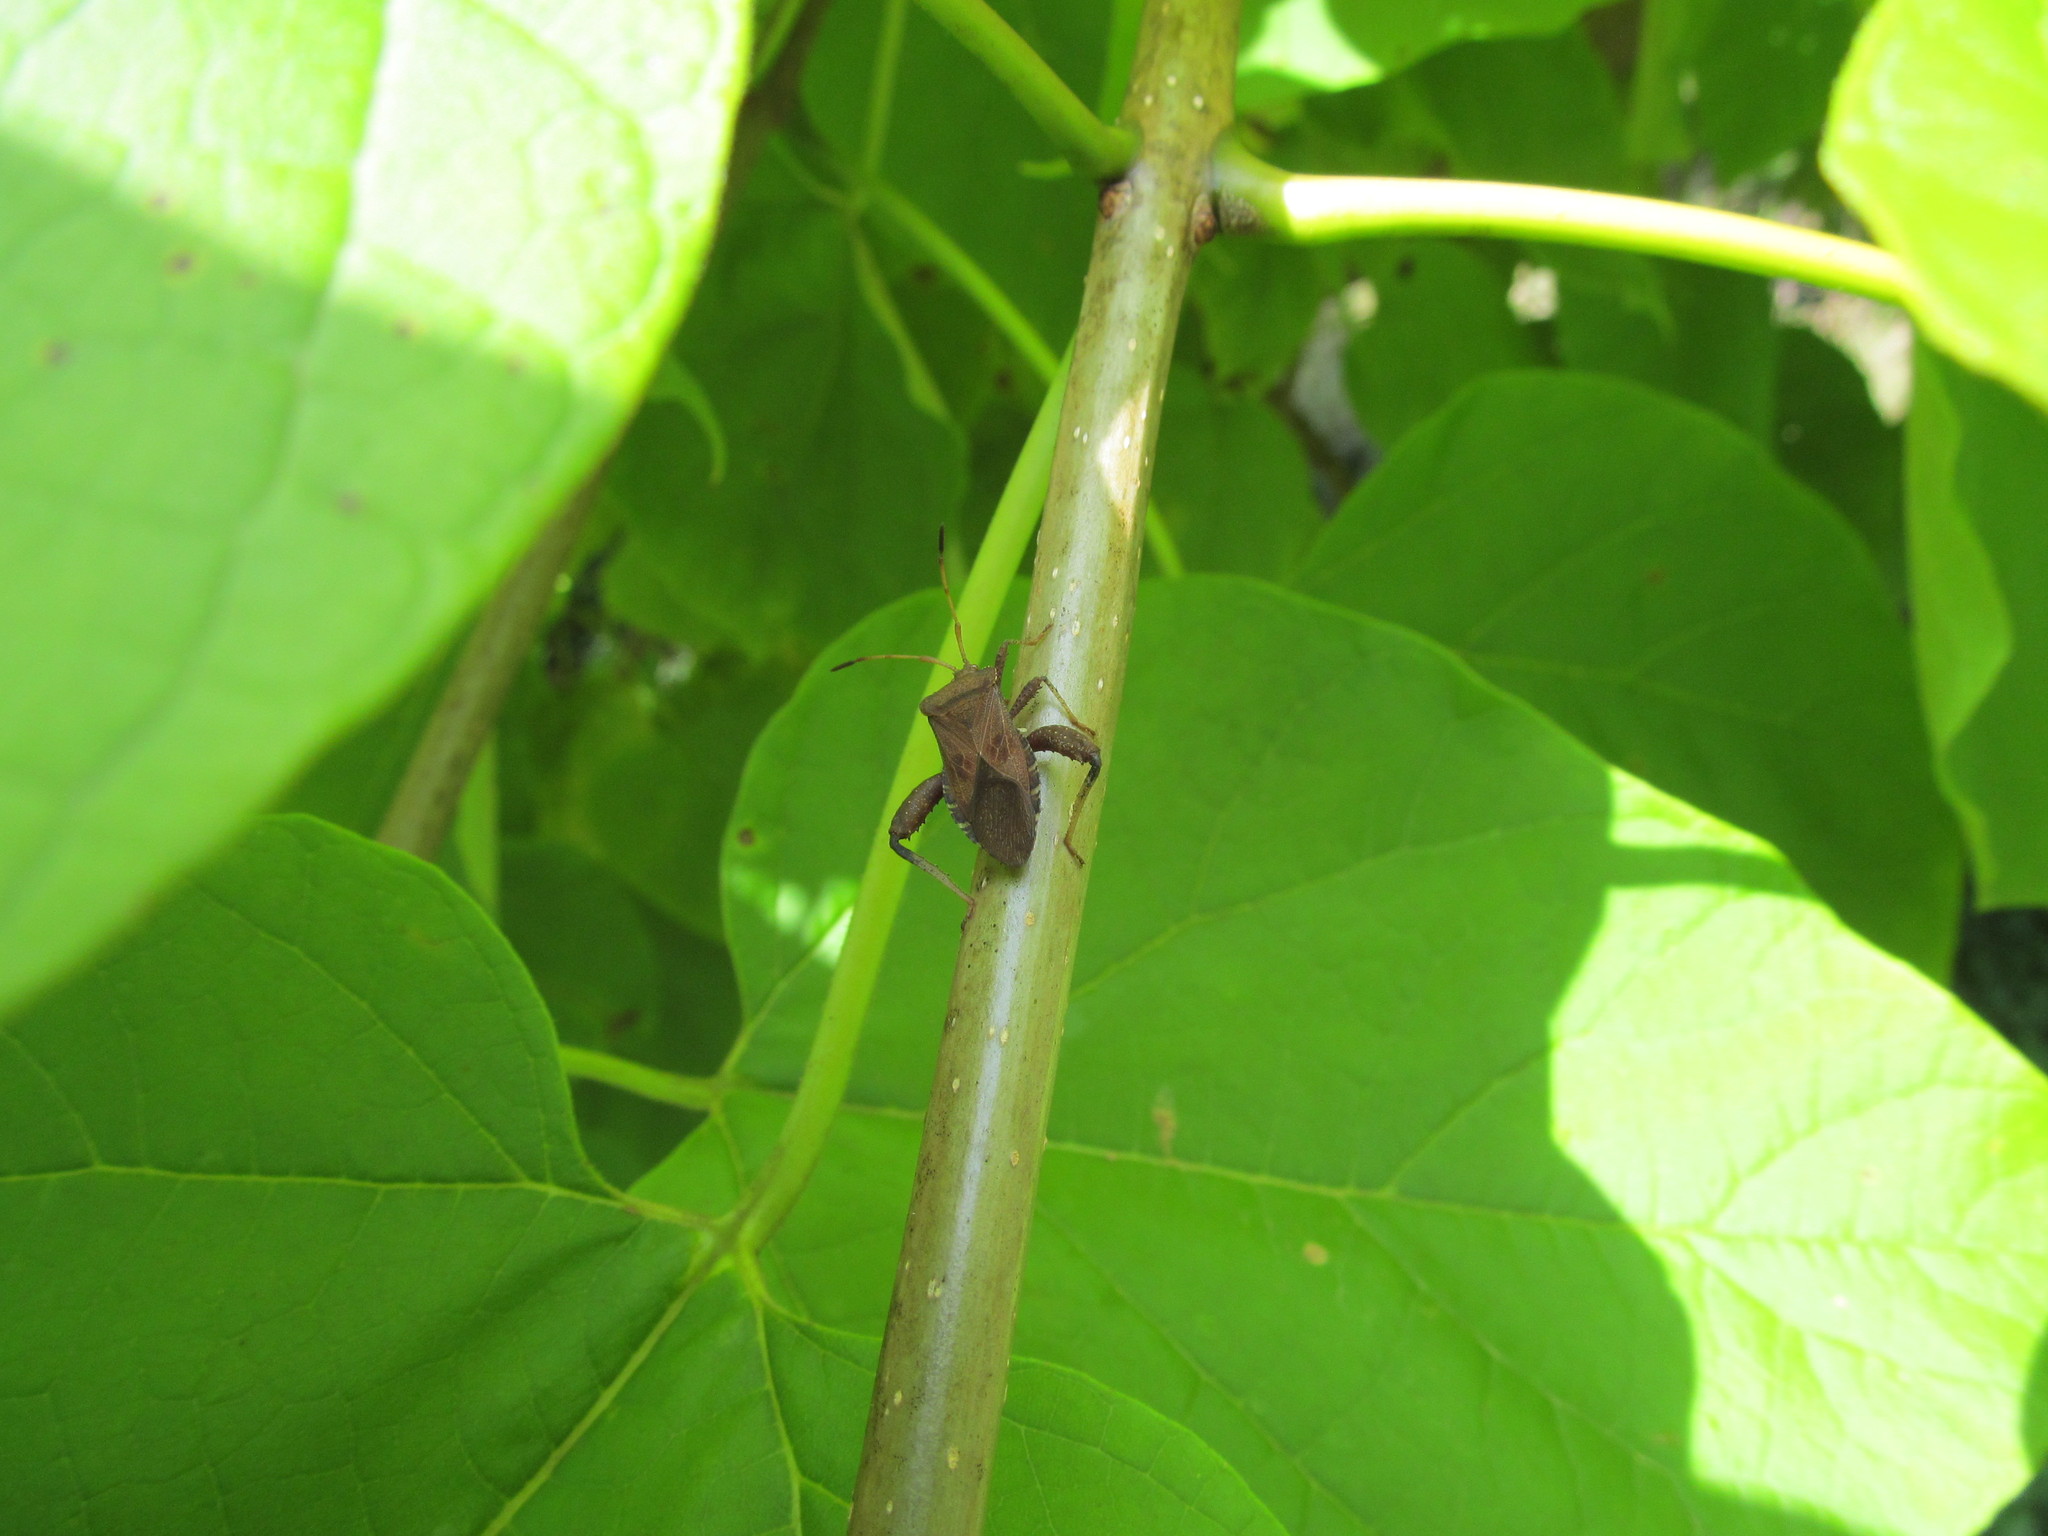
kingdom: Animalia
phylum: Arthropoda
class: Insecta
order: Hemiptera
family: Coreidae
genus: Euthochtha
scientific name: Euthochtha galeator
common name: Helmeted squash bug
